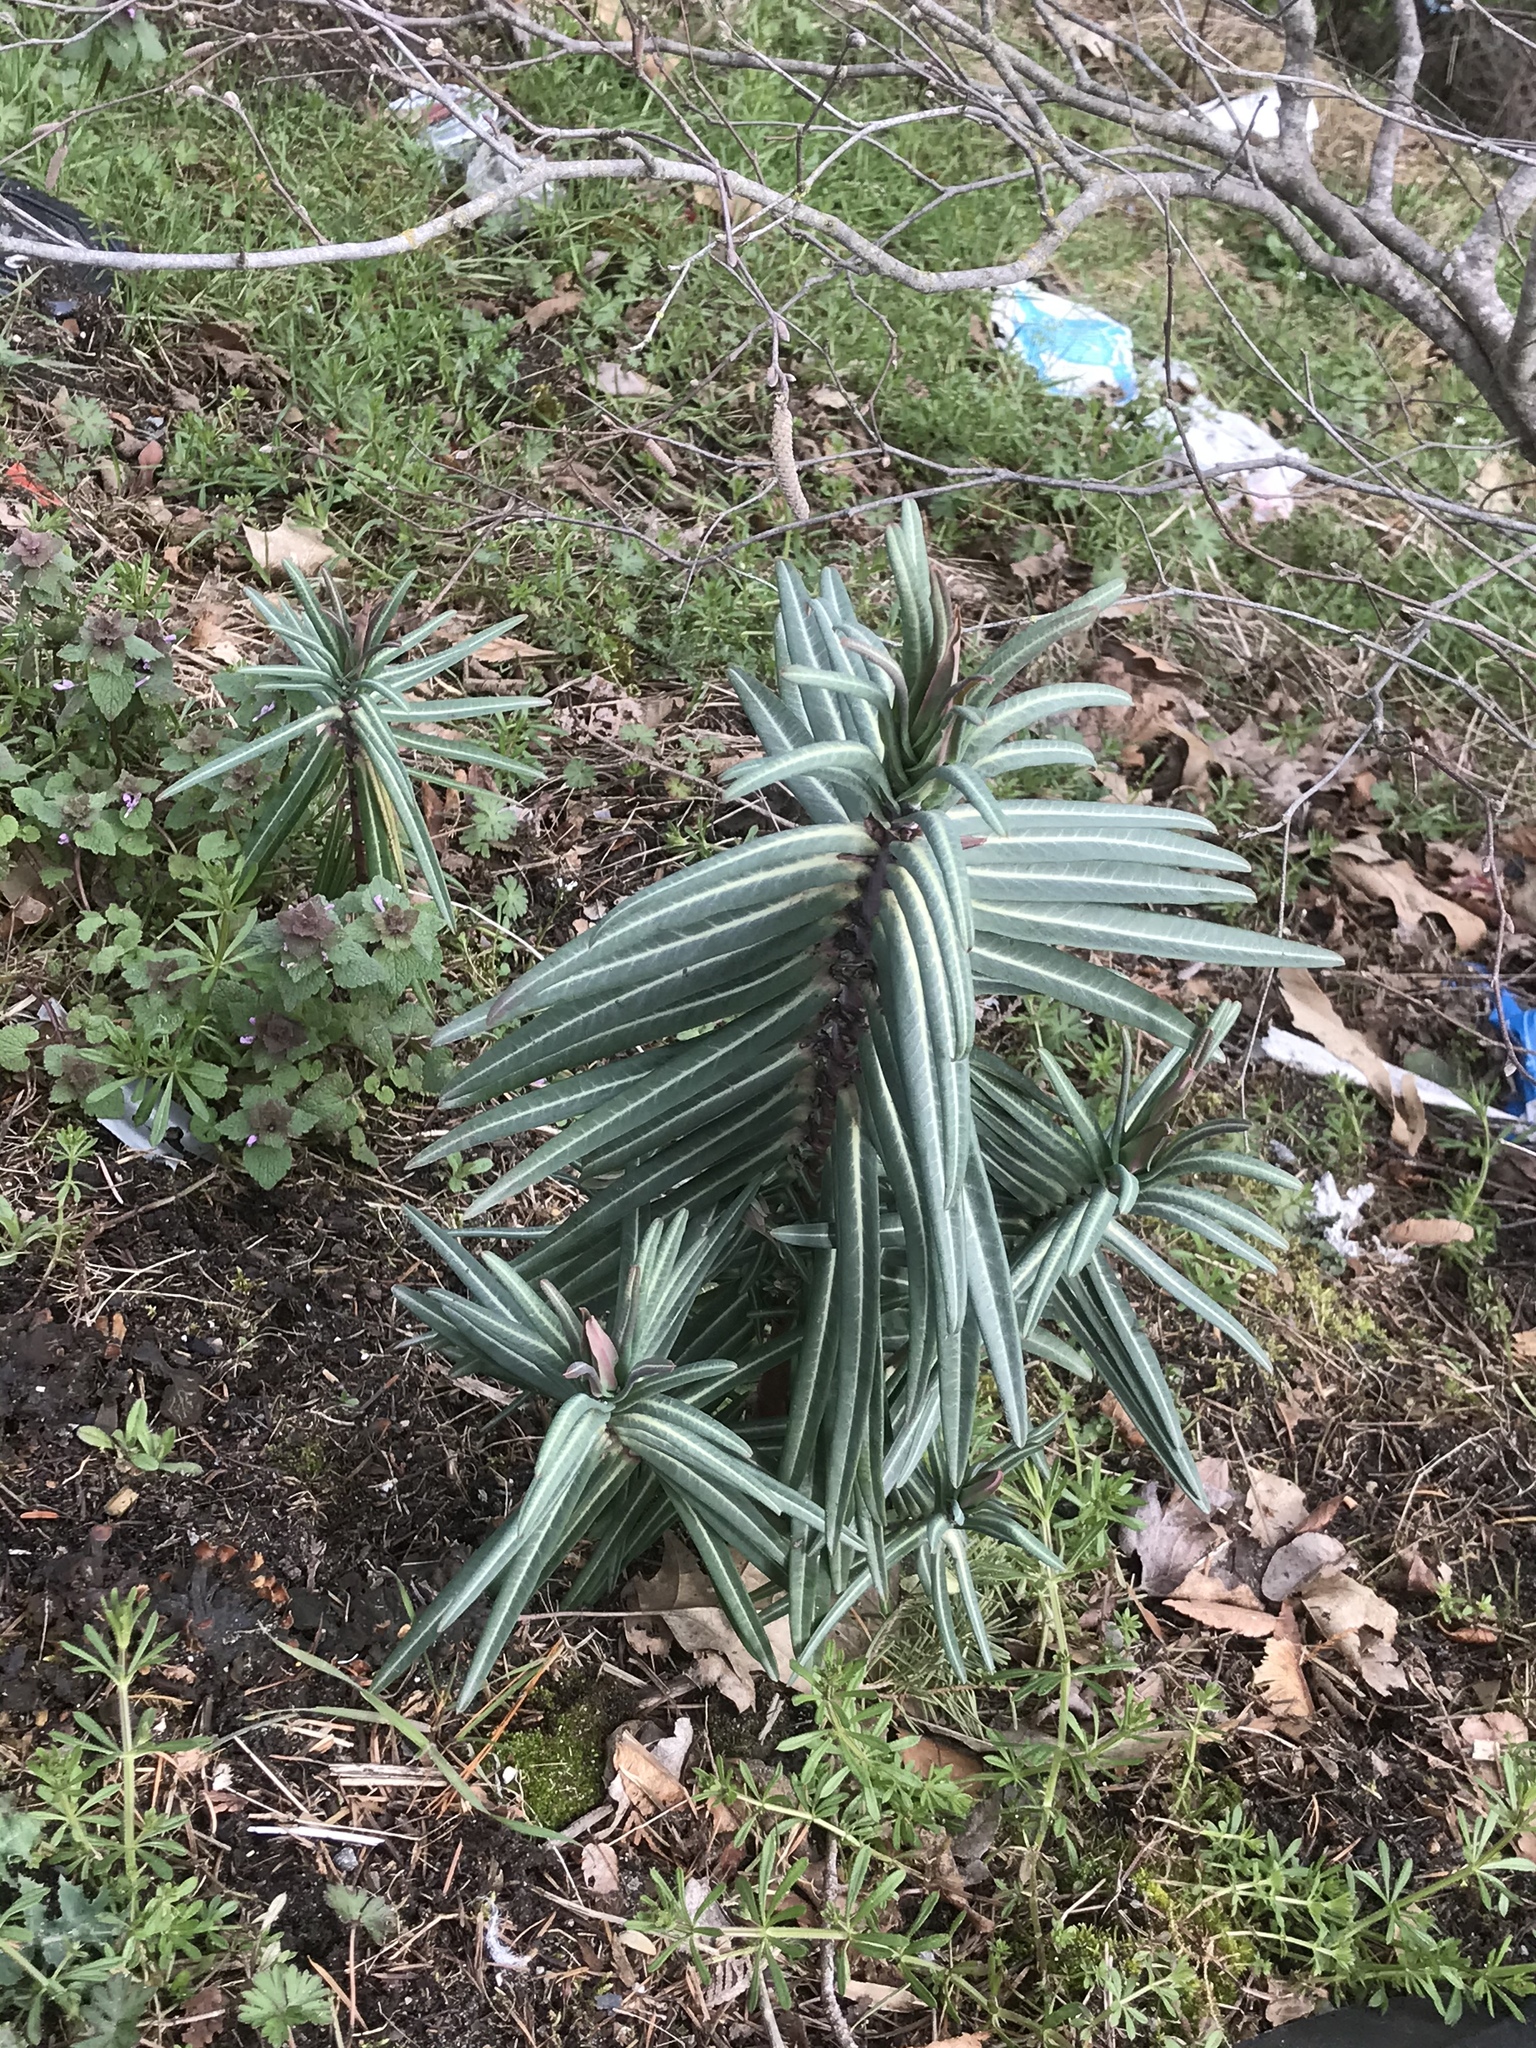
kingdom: Plantae
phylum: Tracheophyta
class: Magnoliopsida
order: Malpighiales
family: Euphorbiaceae
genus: Euphorbia
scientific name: Euphorbia lathyris
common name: Caper spurge
